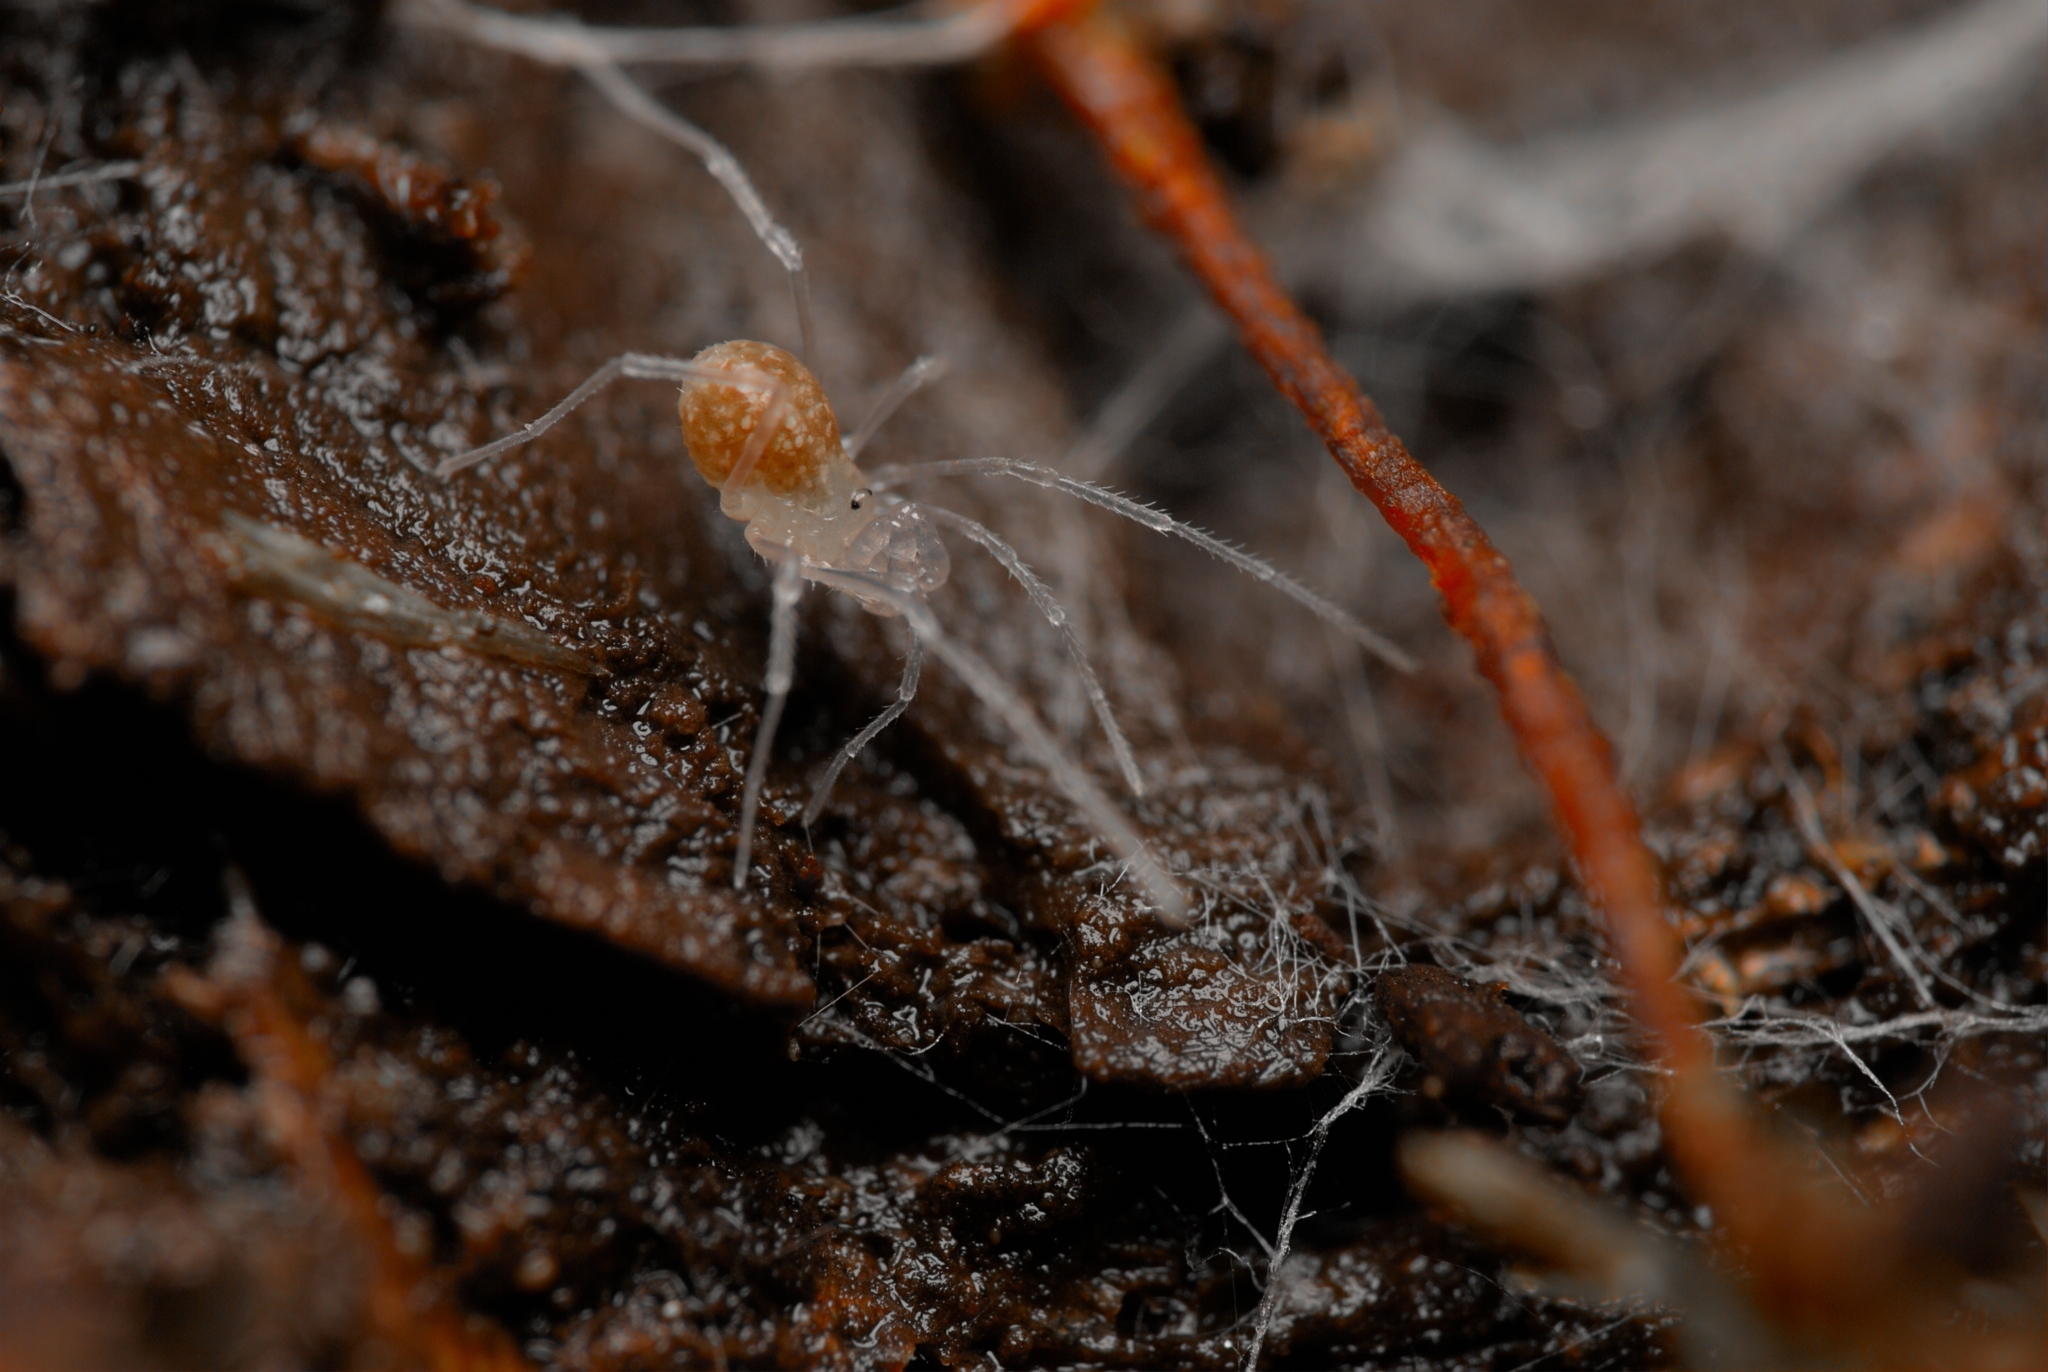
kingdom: Animalia
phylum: Arthropoda
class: Arachnida
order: Opiliones
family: Cladonychiidae
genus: Holoscotolemon
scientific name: Holoscotolemon querilhaci
